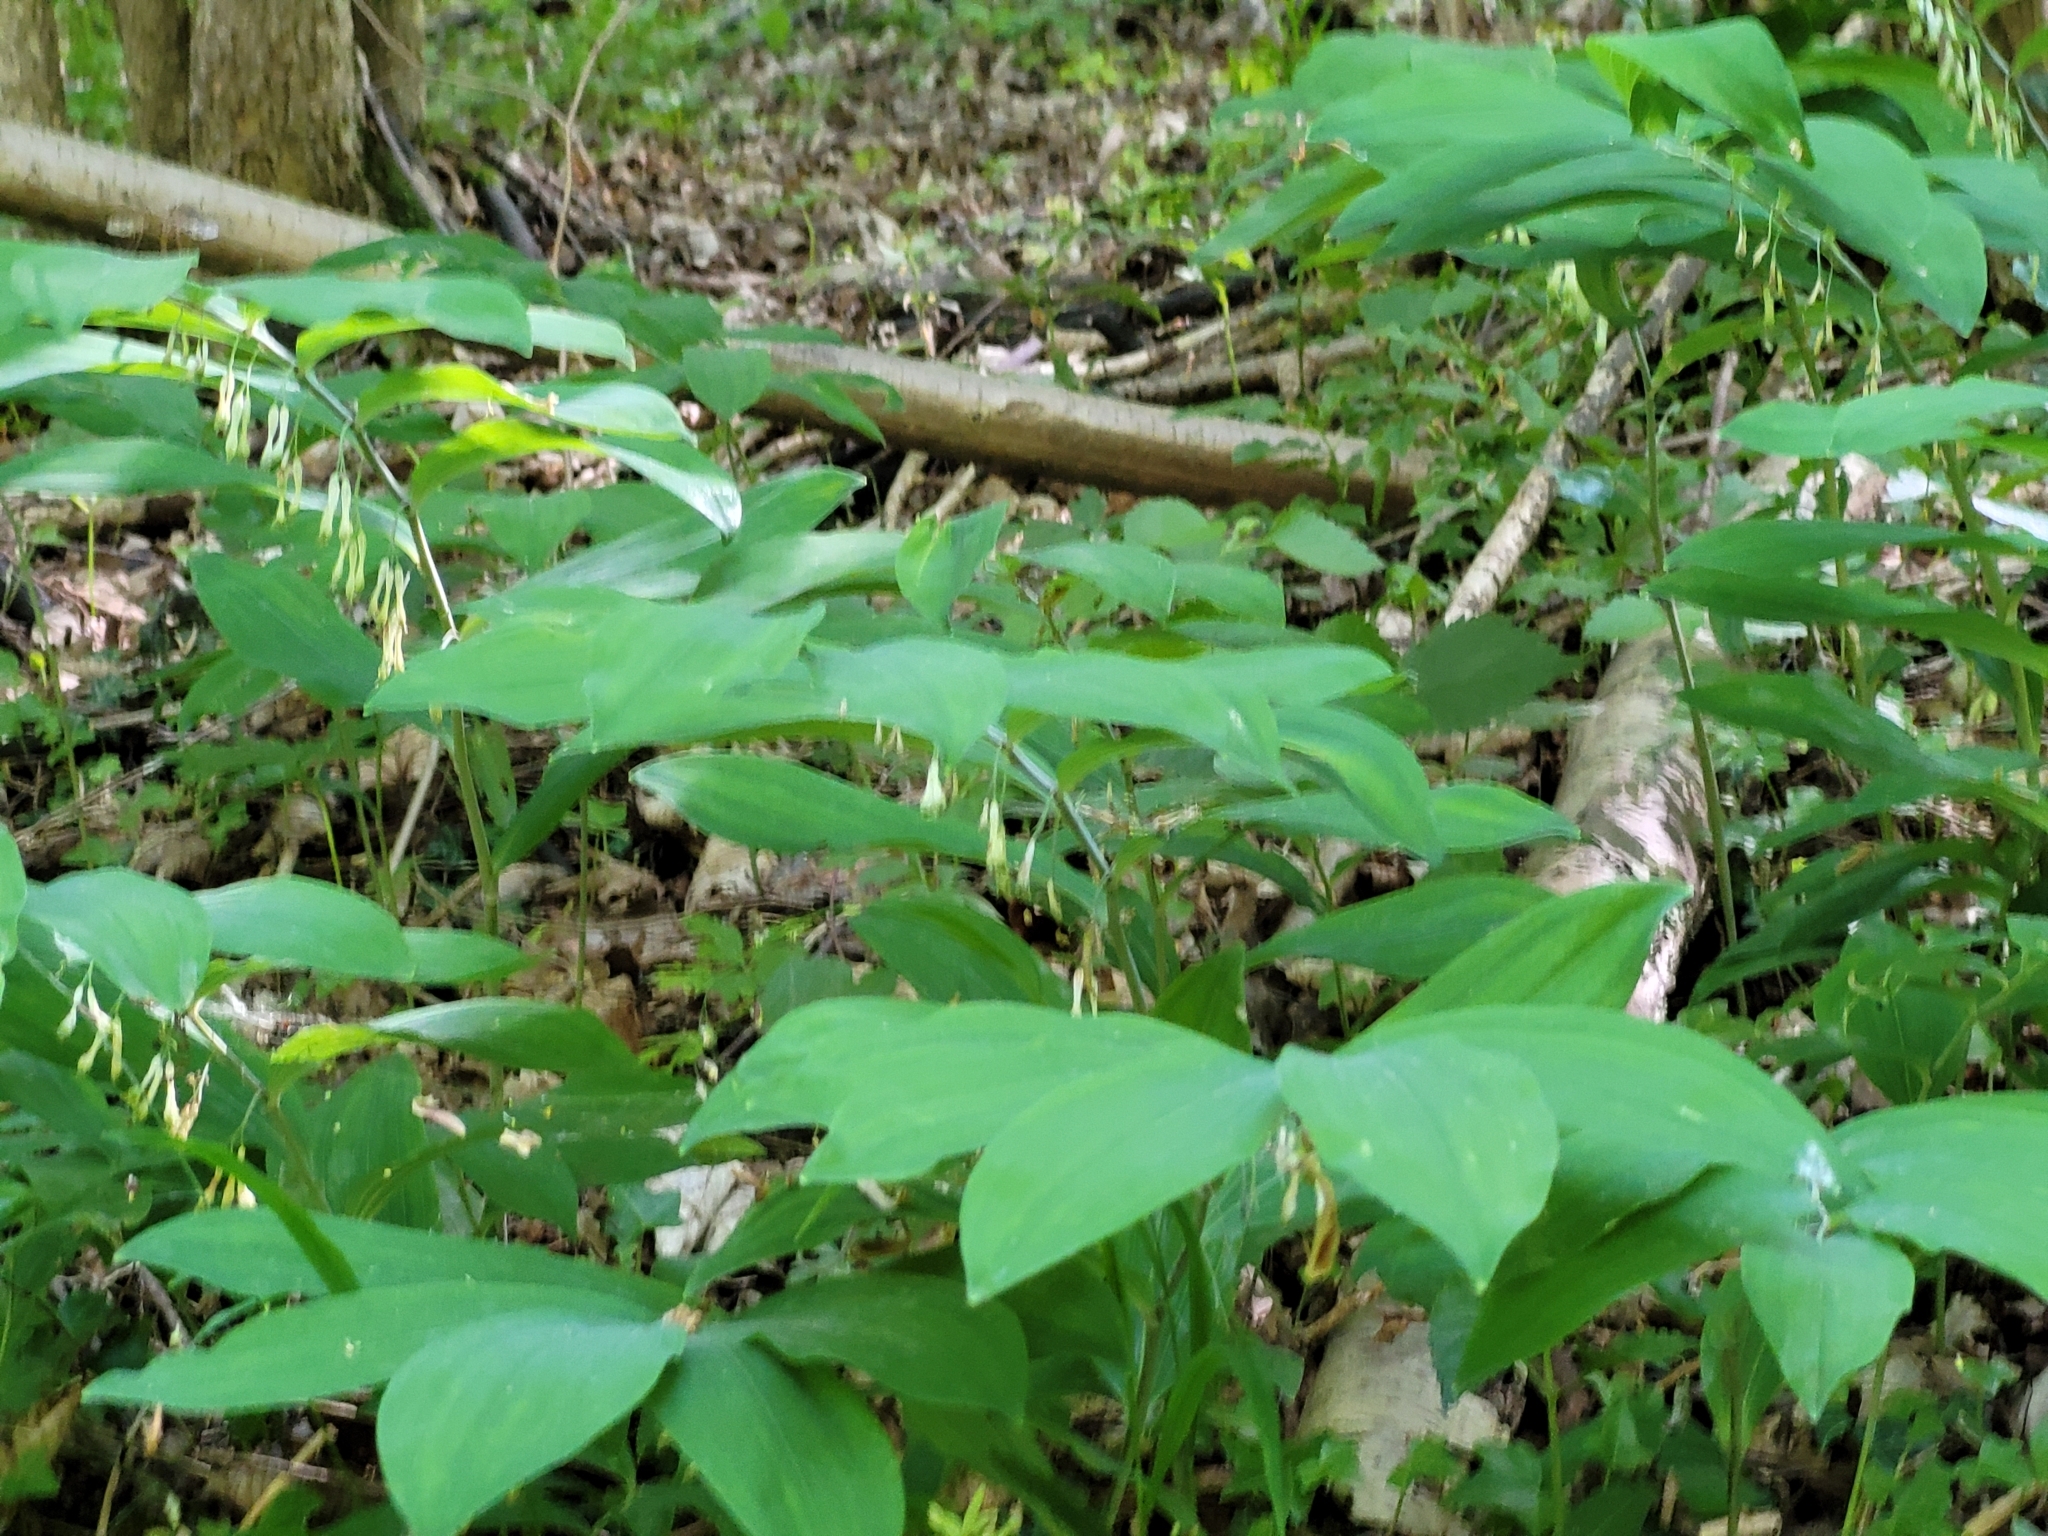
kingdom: Plantae
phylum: Tracheophyta
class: Liliopsida
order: Asparagales
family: Asparagaceae
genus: Polygonatum
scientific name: Polygonatum multiflorum
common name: Solomon's-seal
